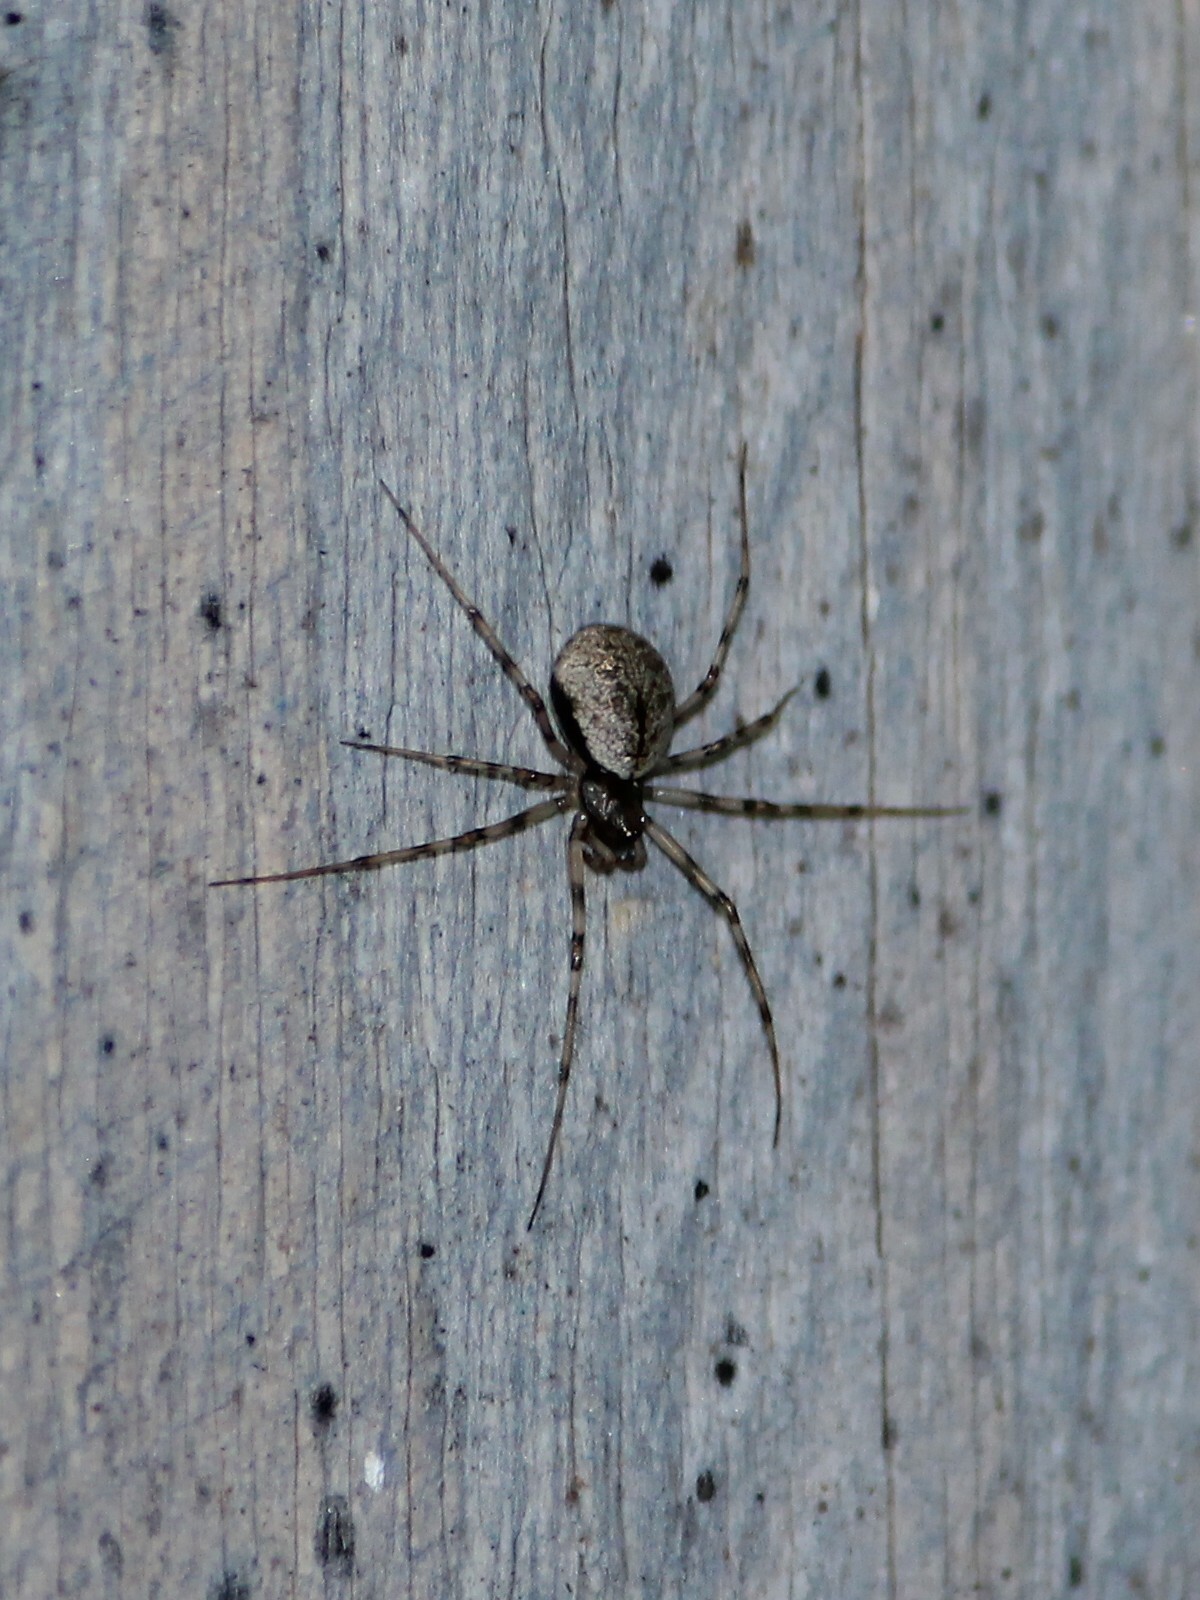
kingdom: Animalia
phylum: Arthropoda
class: Arachnida
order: Araneae
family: Linyphiidae
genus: Drapetisca
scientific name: Drapetisca socialis
